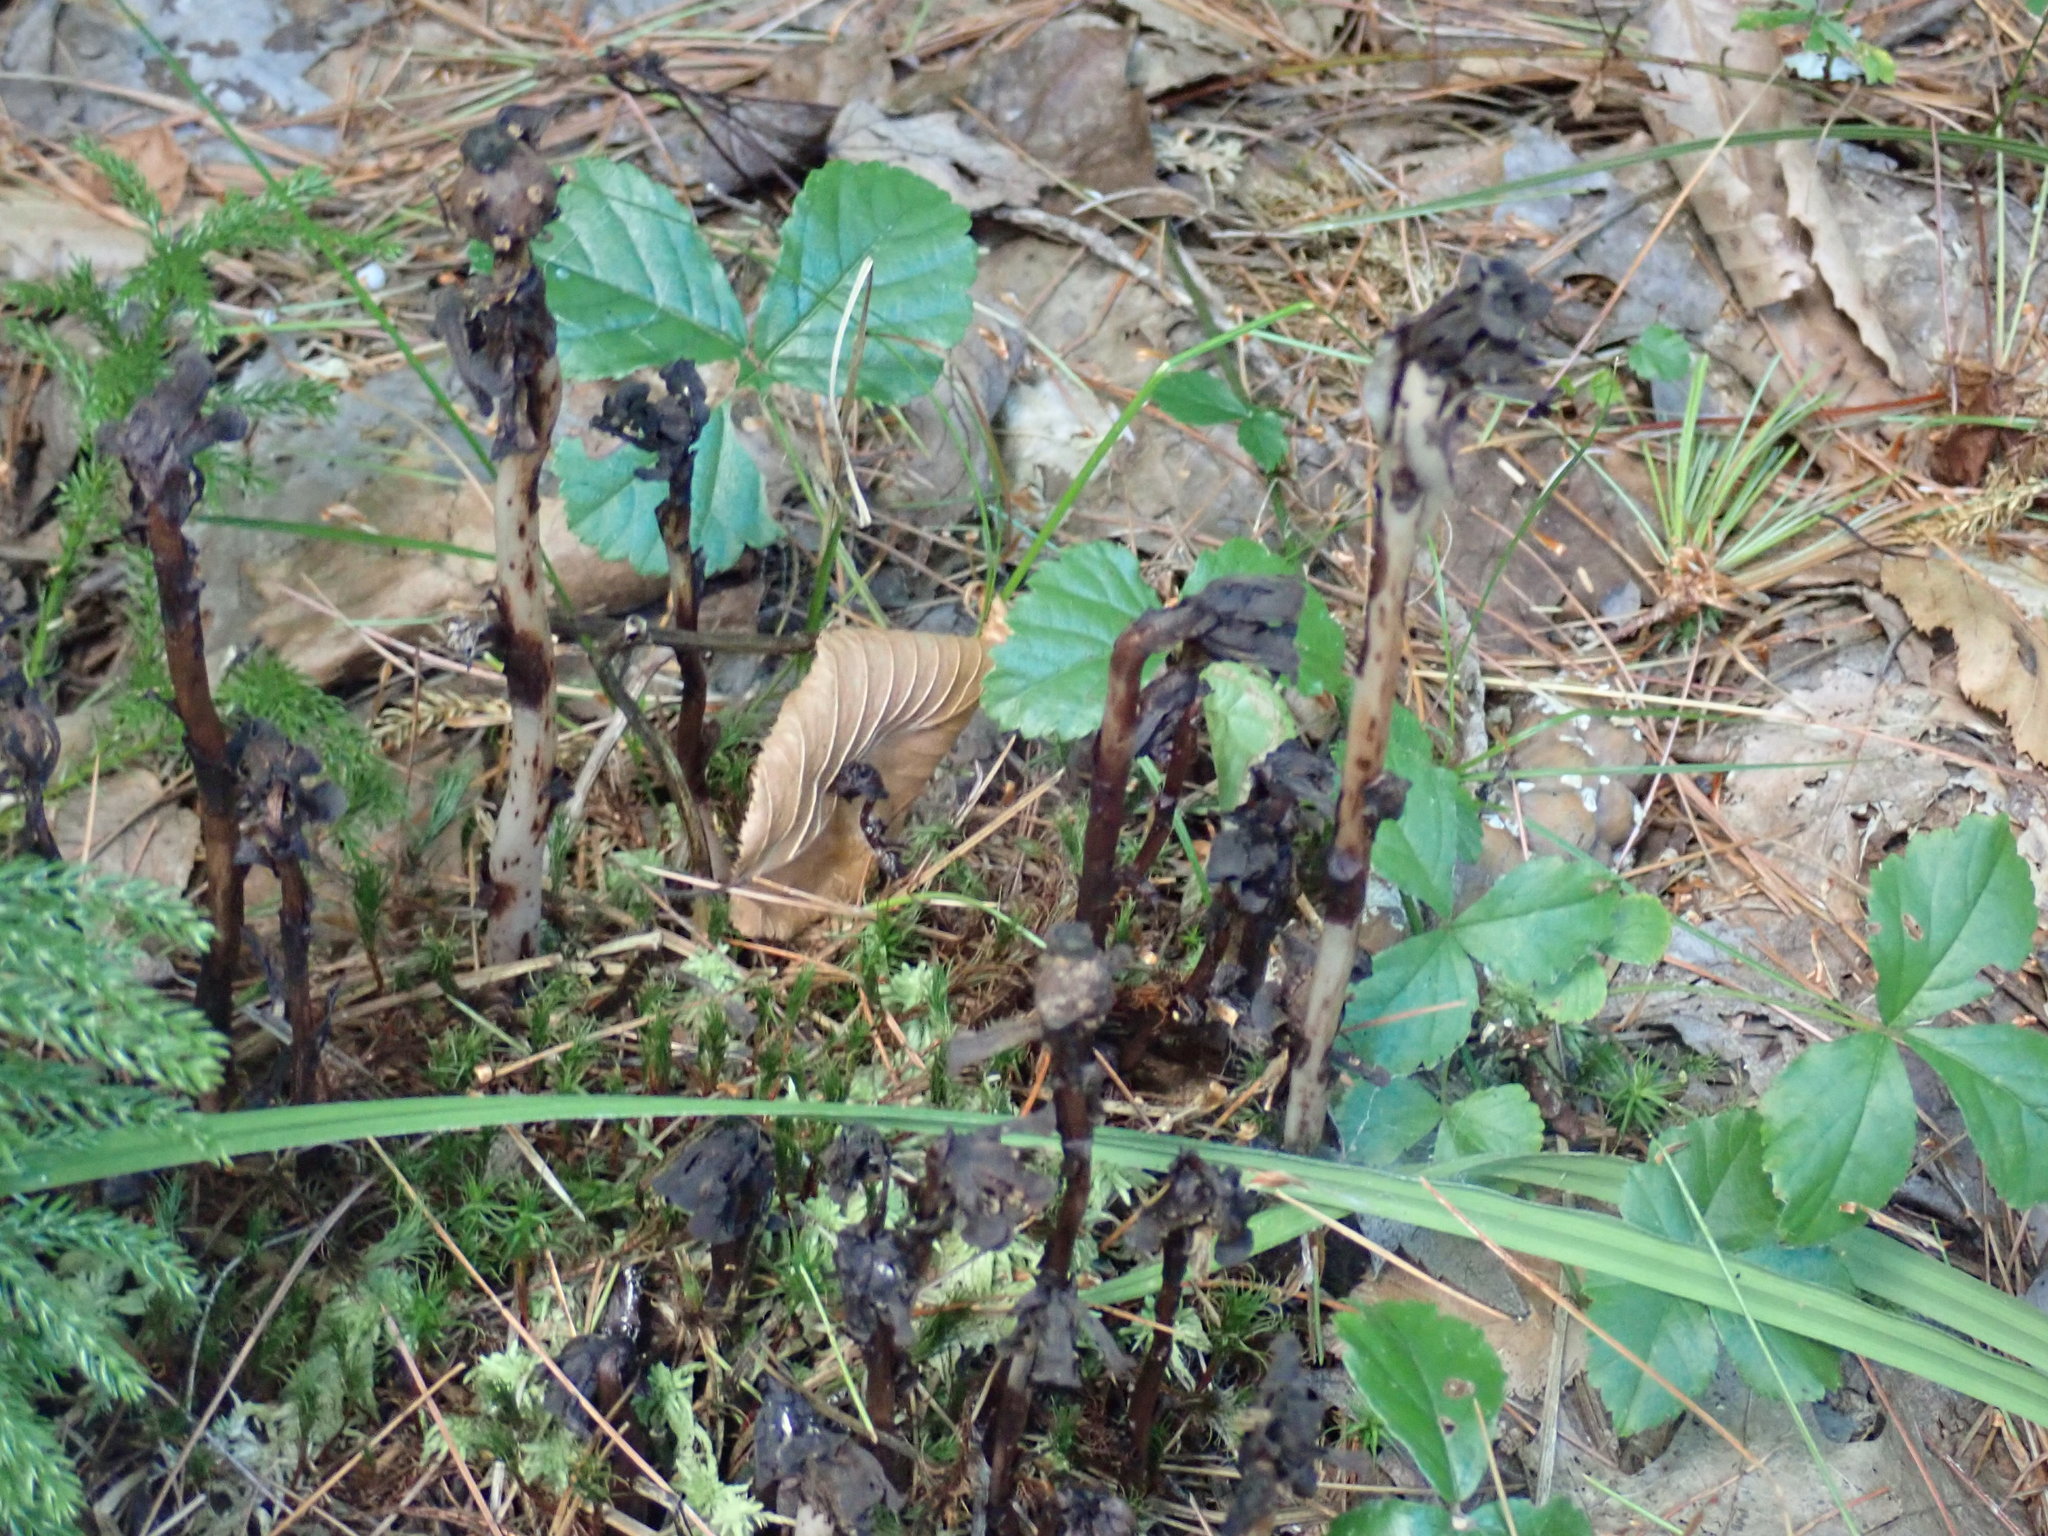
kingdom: Plantae
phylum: Tracheophyta
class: Magnoliopsida
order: Ericales
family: Ericaceae
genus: Monotropa
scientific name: Monotropa uniflora
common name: Convulsion root
